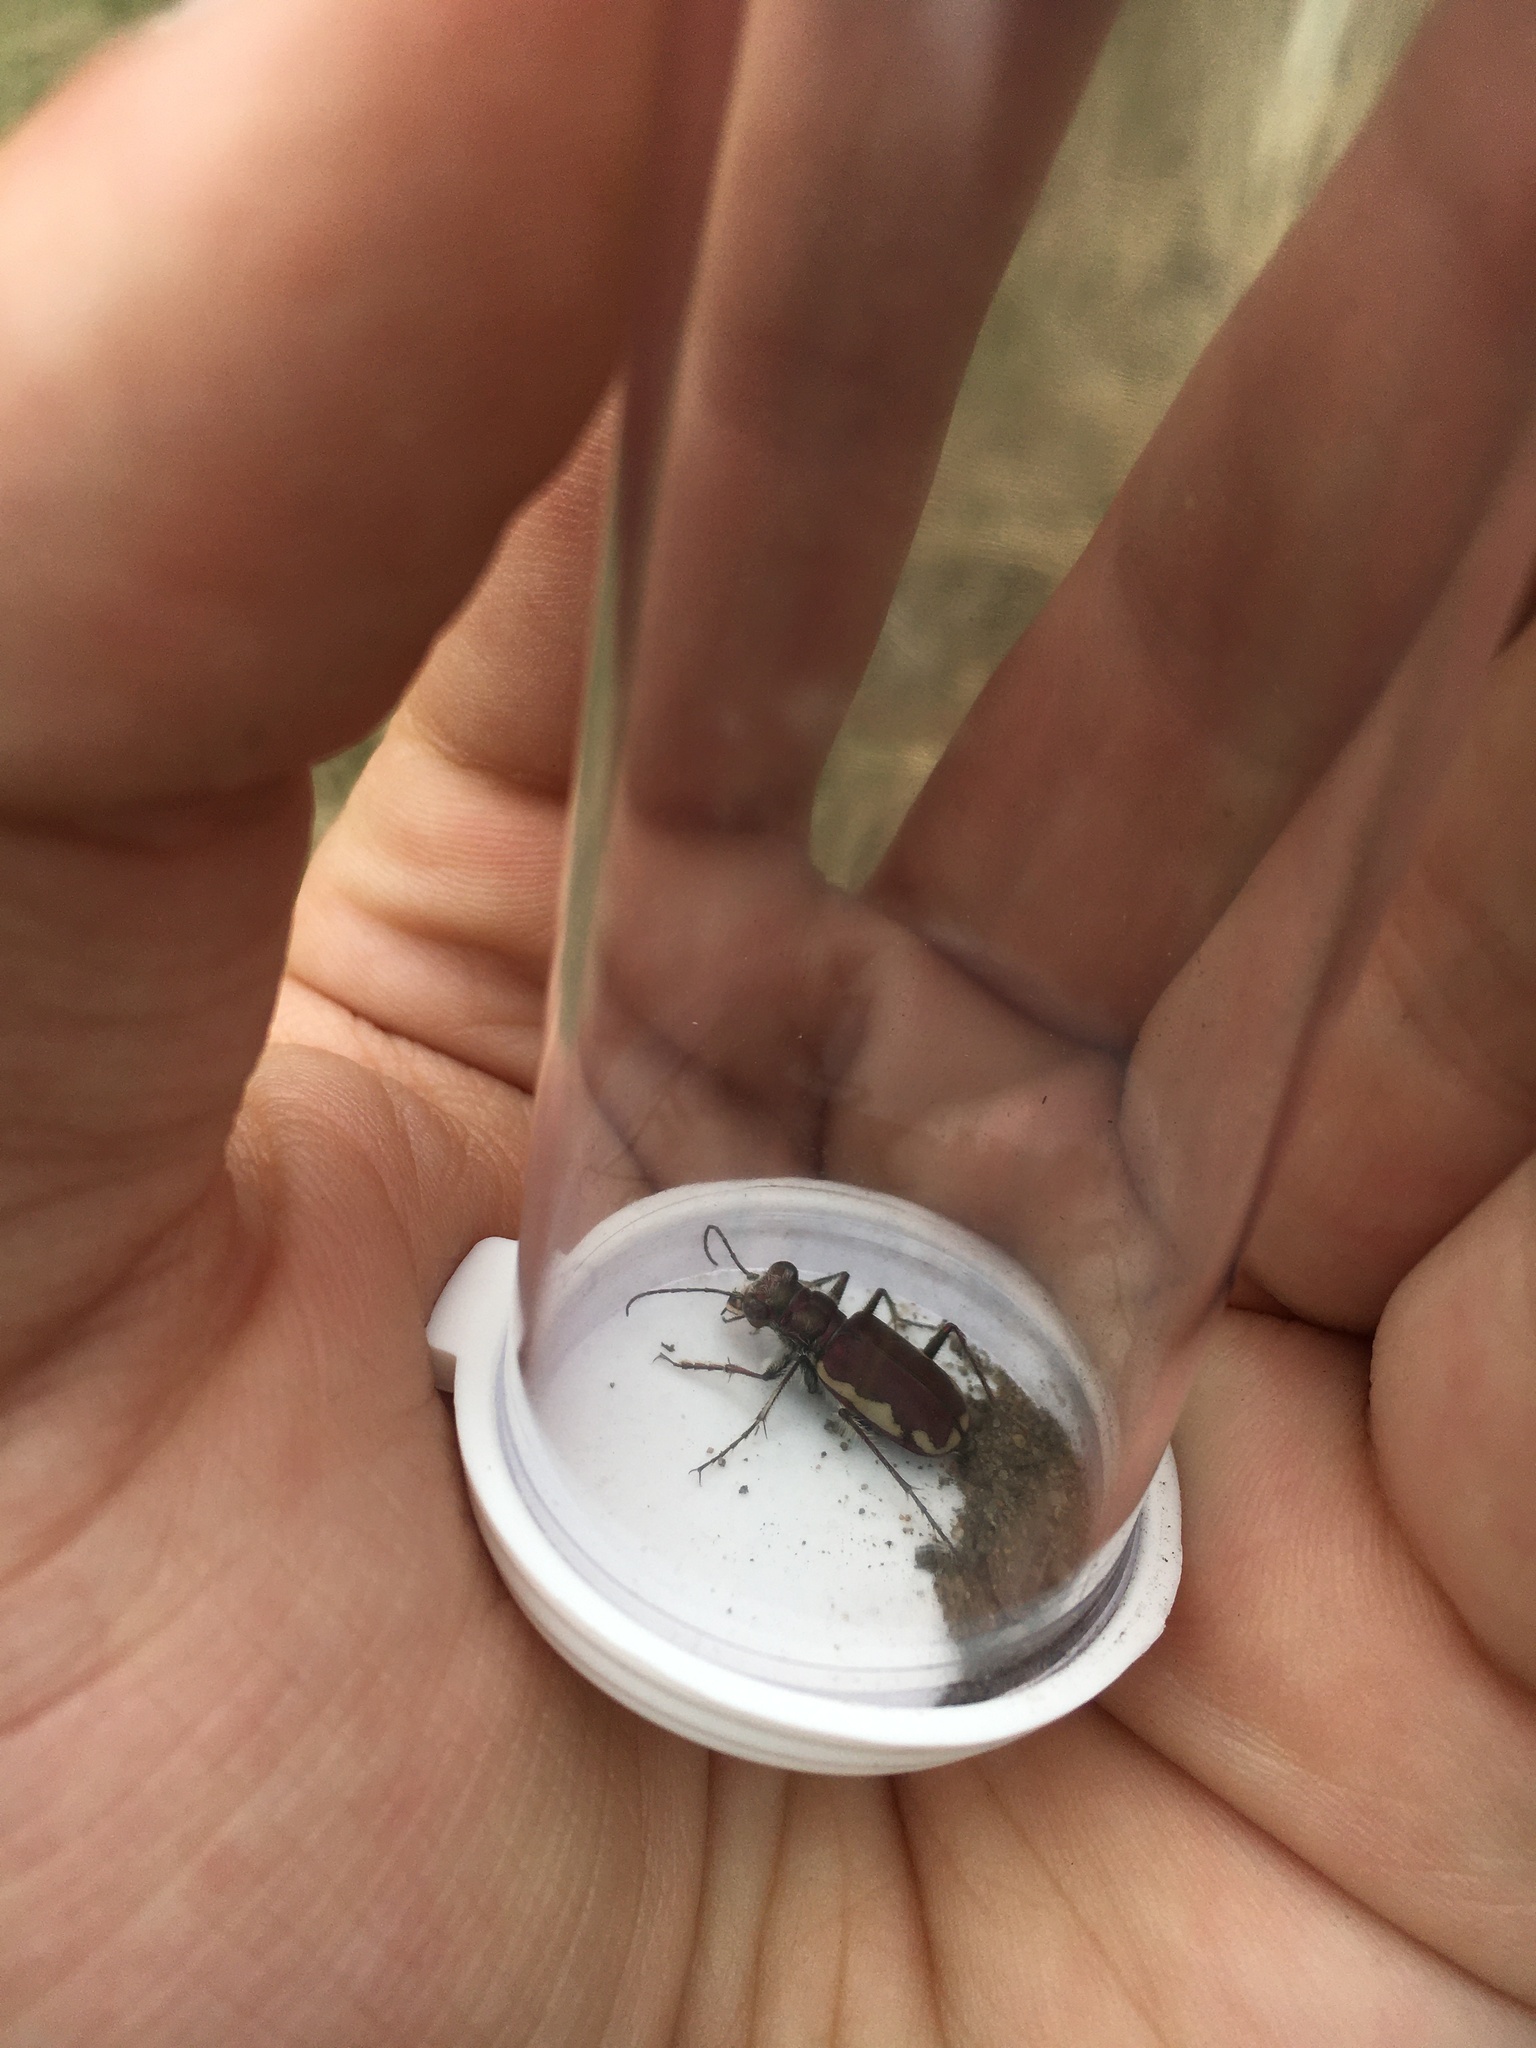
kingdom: Animalia
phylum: Arthropoda
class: Insecta
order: Coleoptera
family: Carabidae
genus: Cicindela
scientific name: Cicindela scutellaris
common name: Festive tiger beetle
